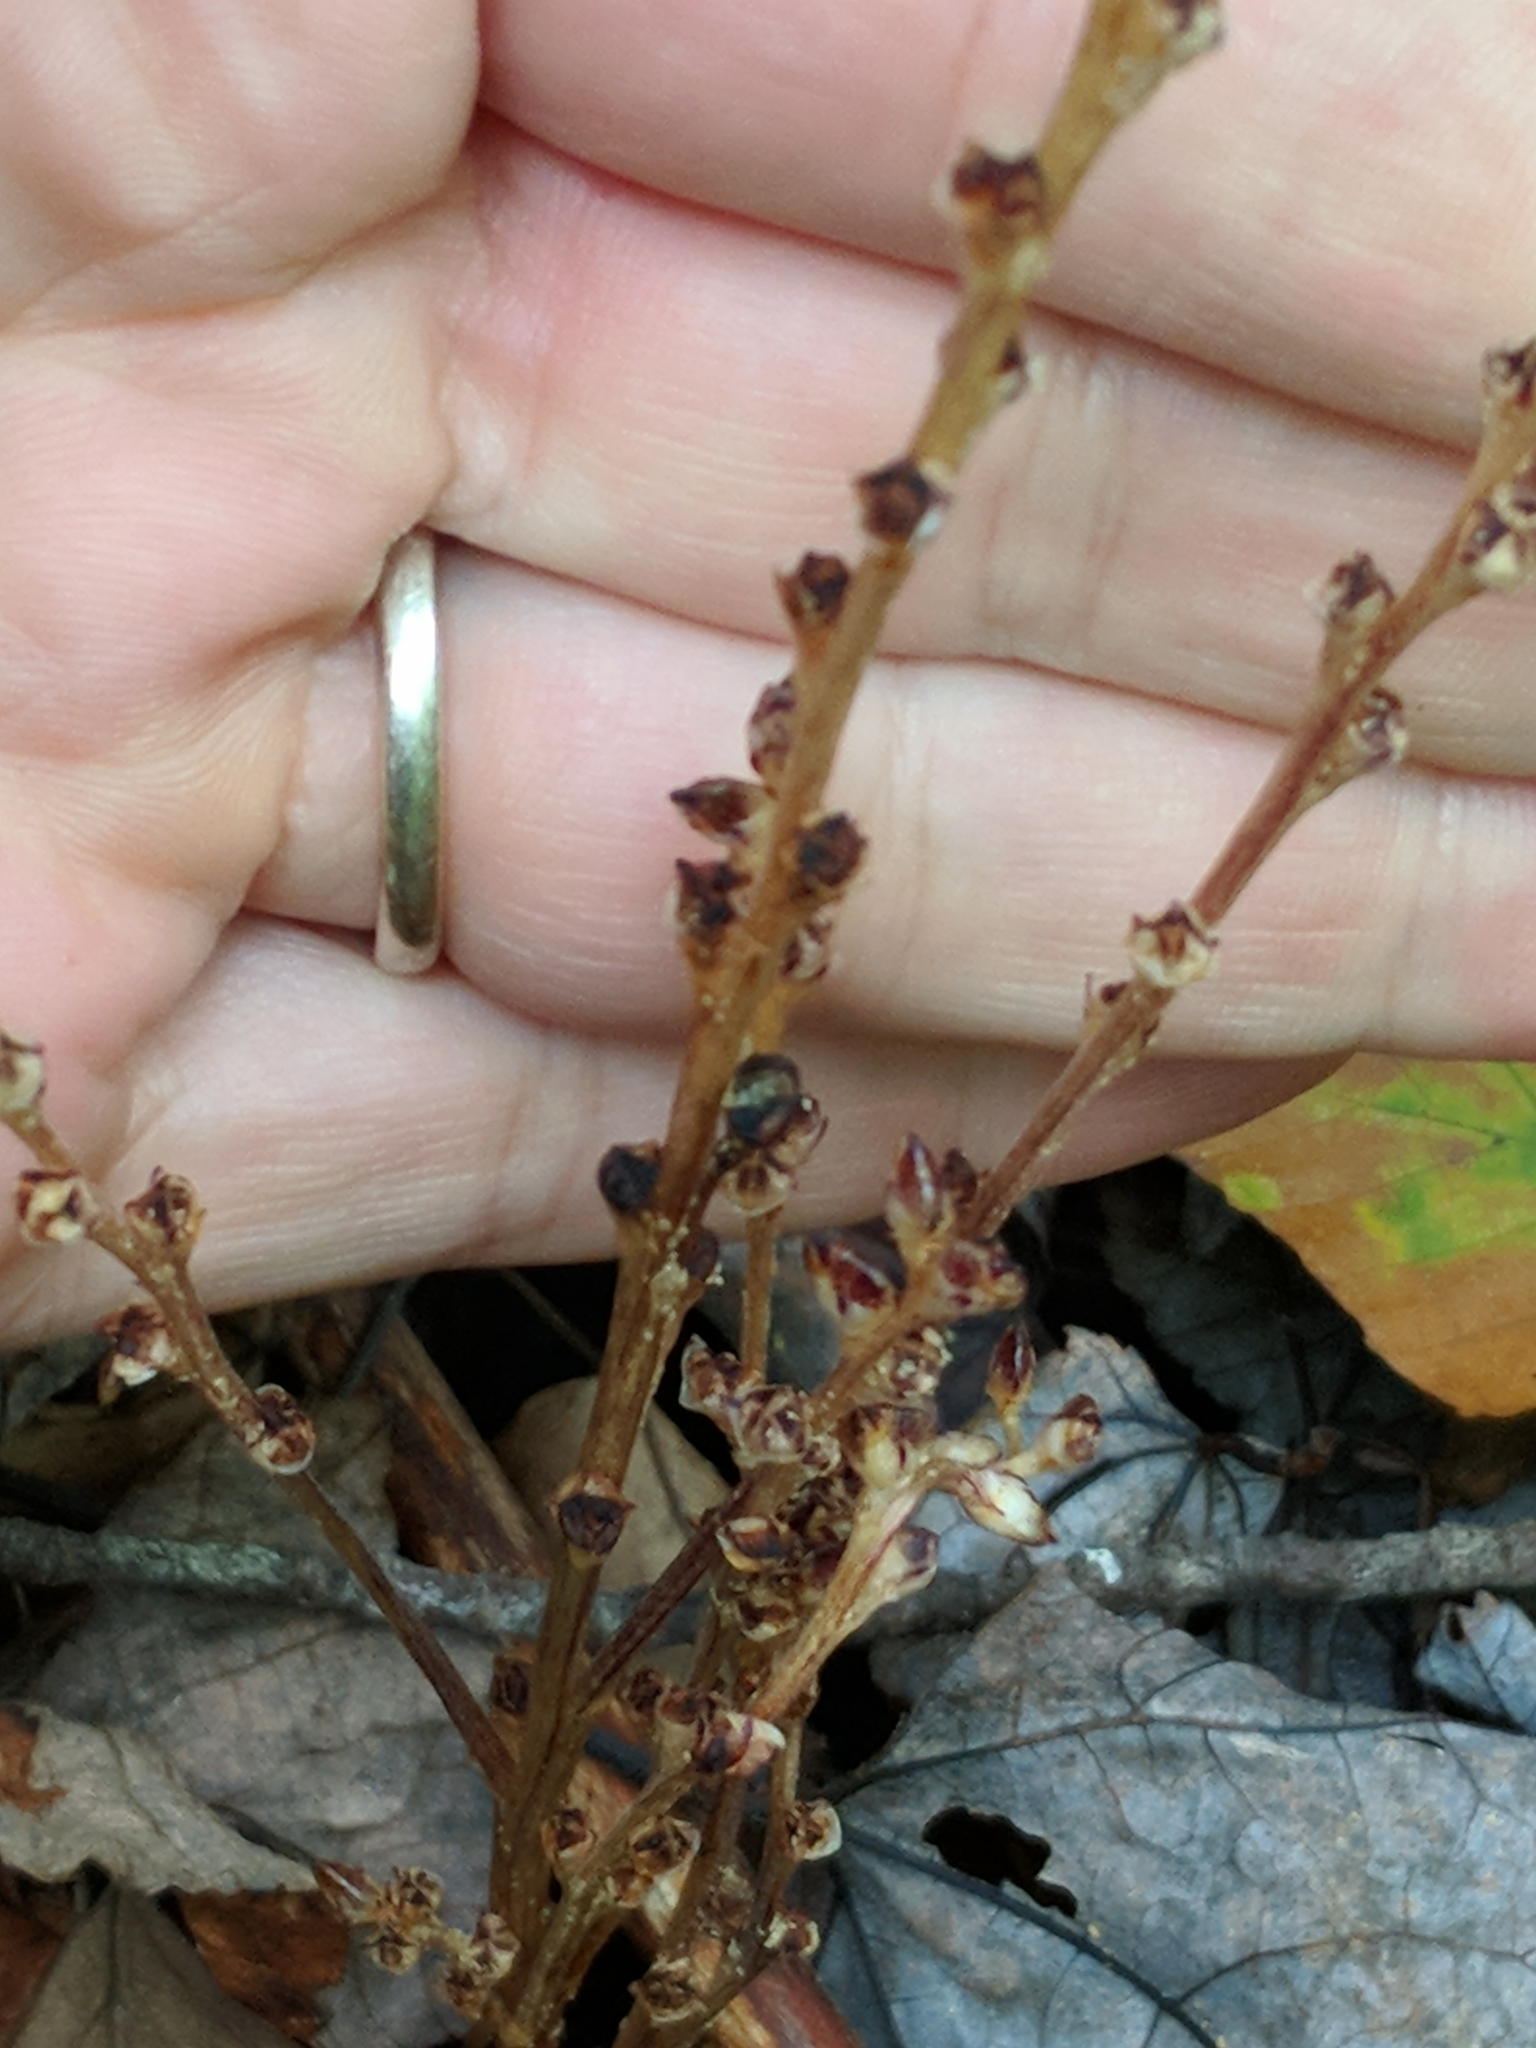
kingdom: Plantae
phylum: Tracheophyta
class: Magnoliopsida
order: Lamiales
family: Orobanchaceae
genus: Epifagus
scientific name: Epifagus virginiana
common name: Beechdrops
